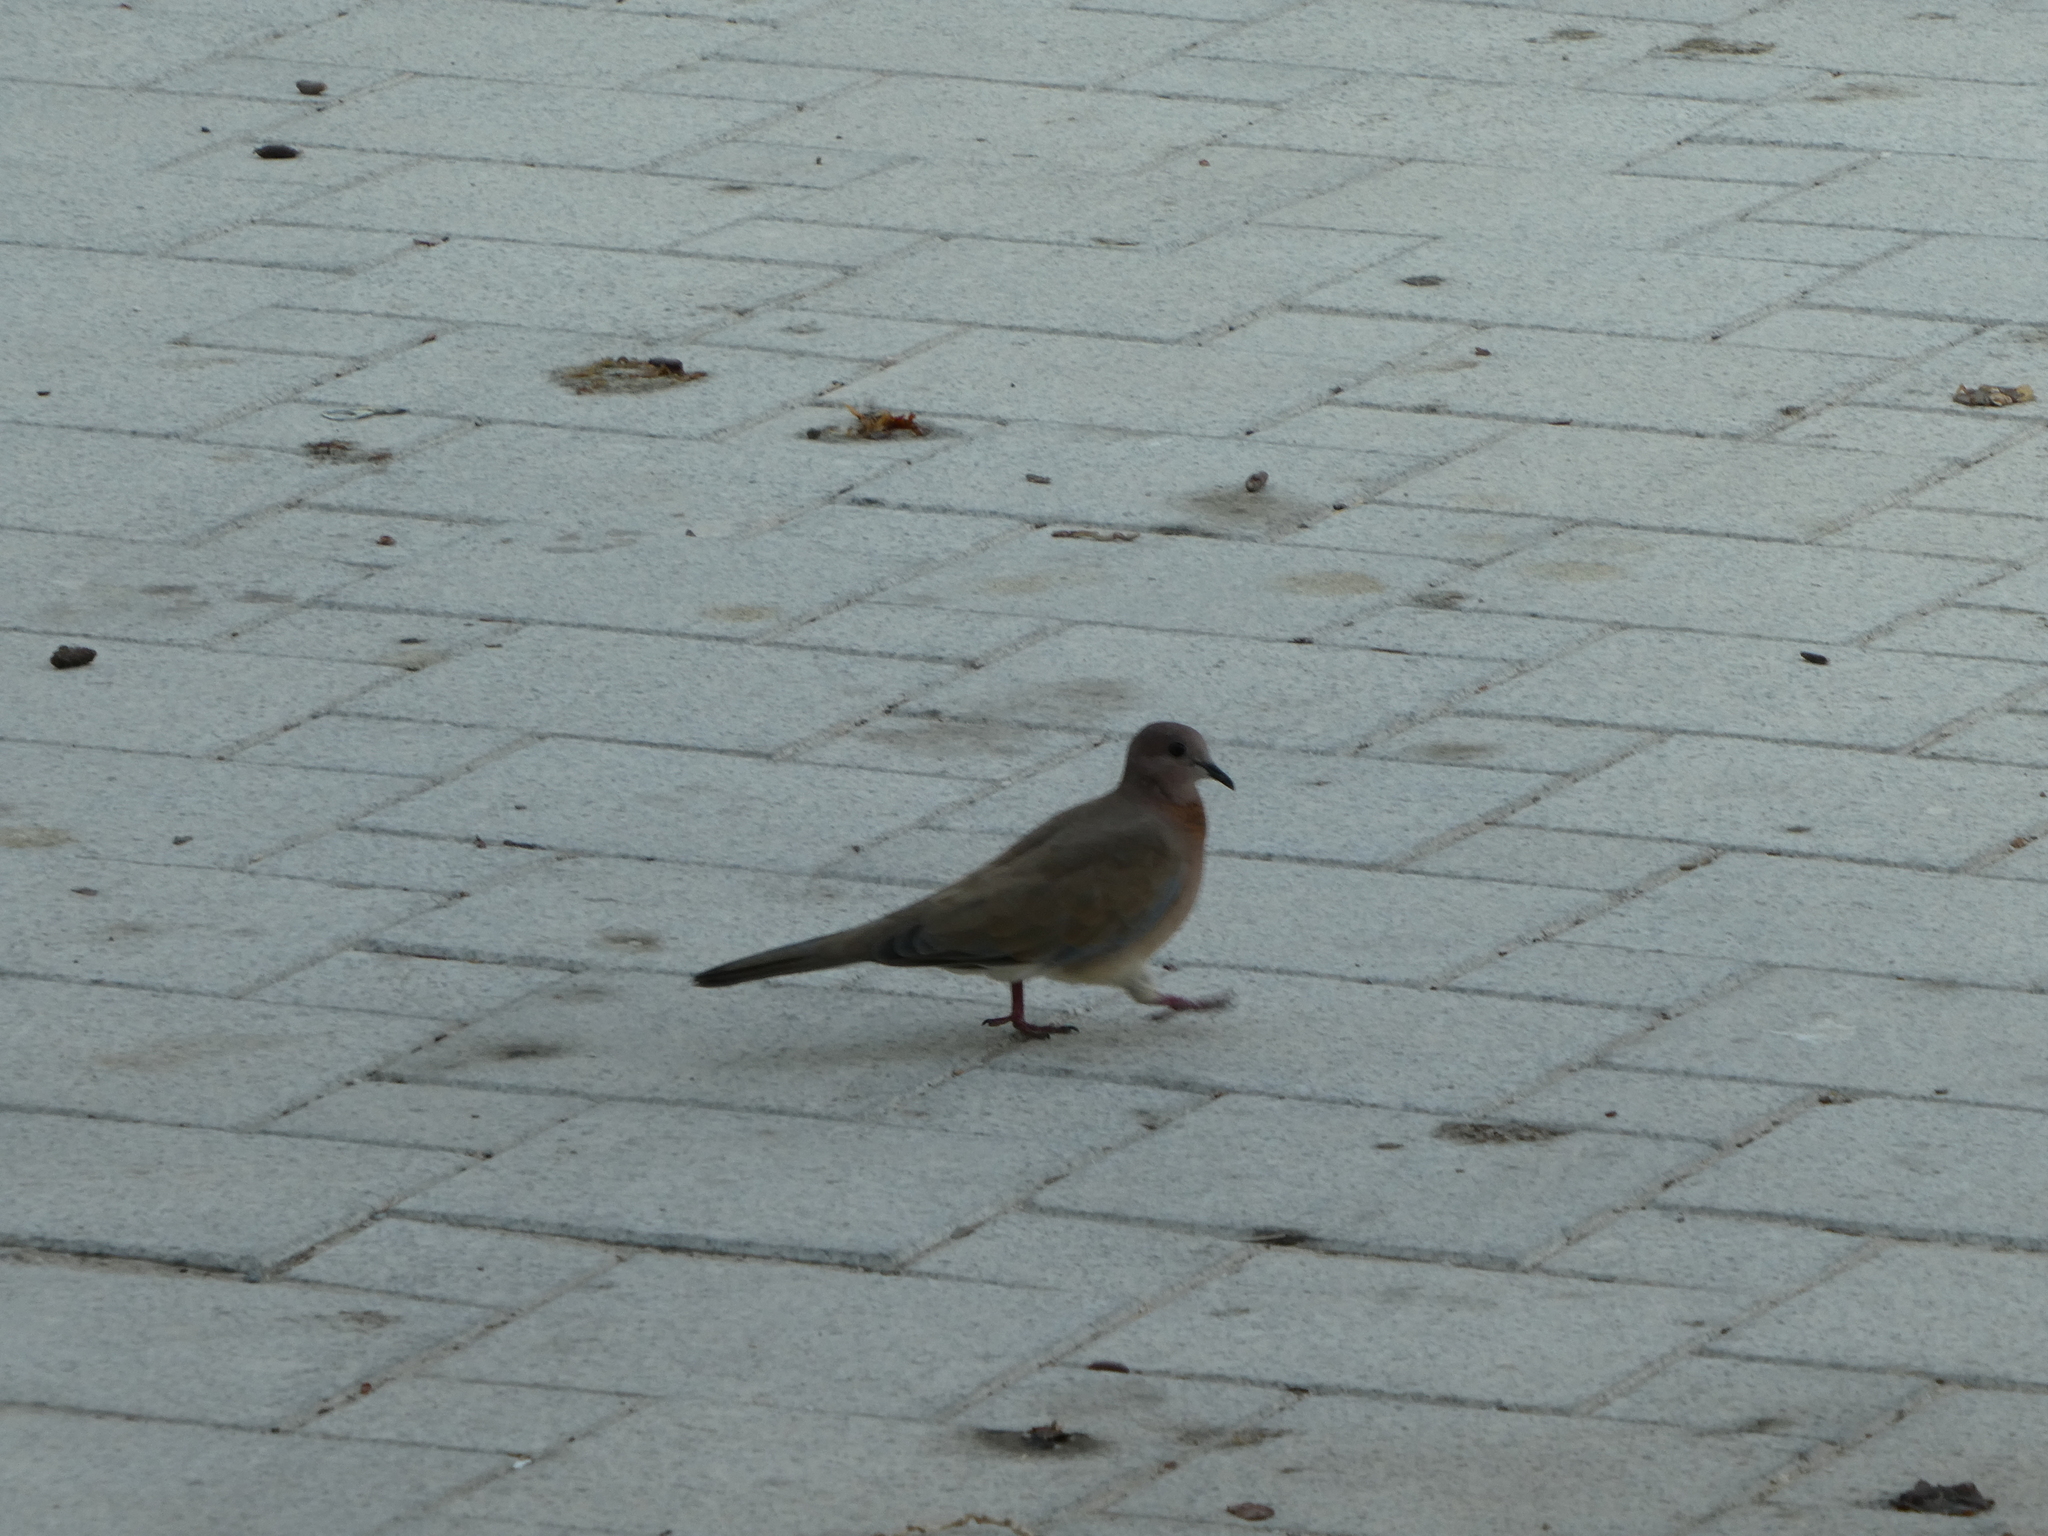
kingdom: Animalia
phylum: Chordata
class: Aves
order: Columbiformes
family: Columbidae
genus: Spilopelia
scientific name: Spilopelia senegalensis
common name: Laughing dove
